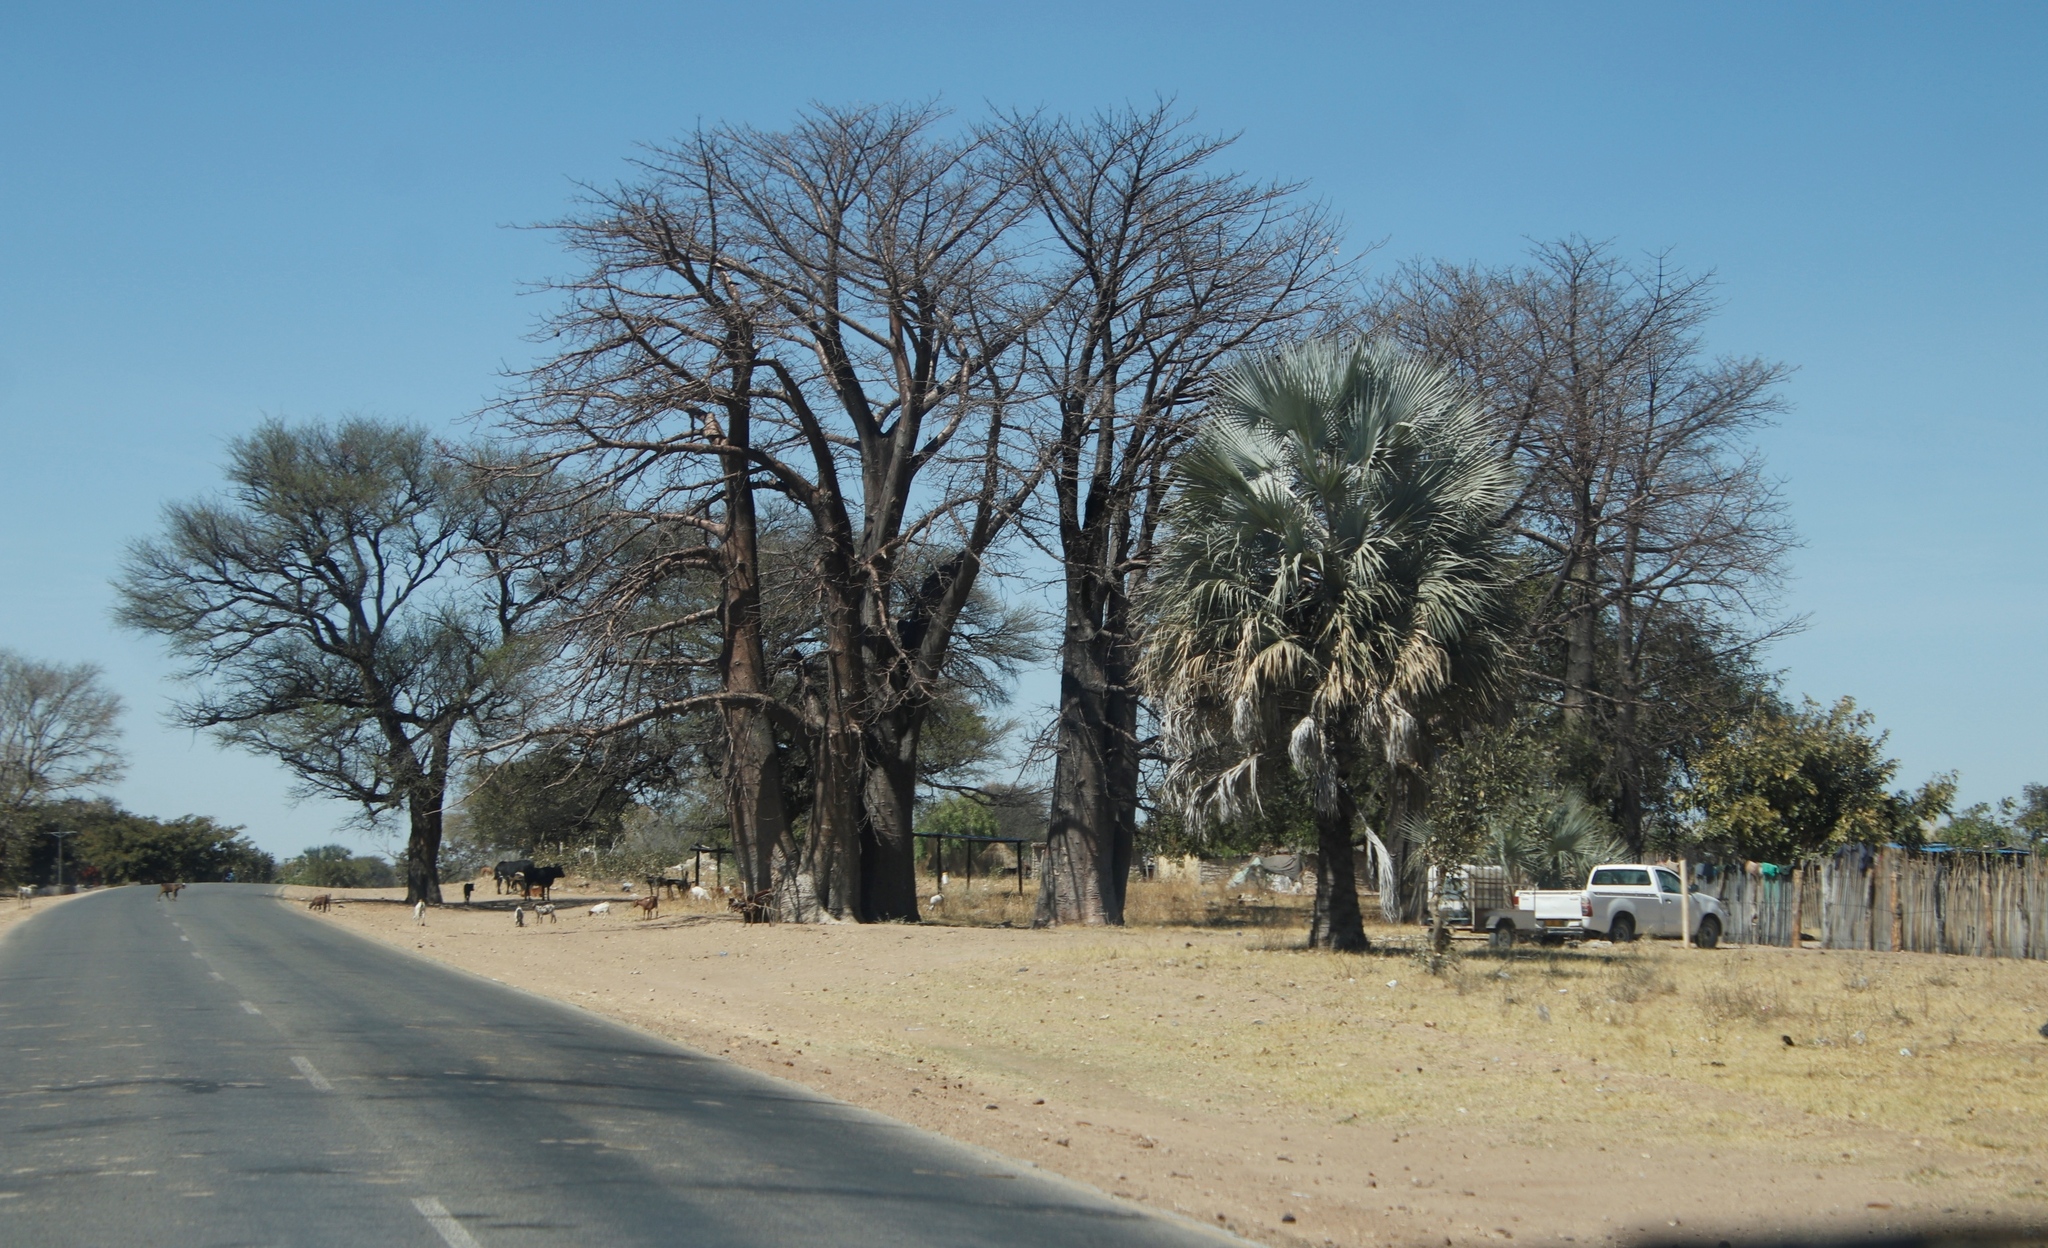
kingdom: Plantae
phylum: Tracheophyta
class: Liliopsida
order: Arecales
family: Arecaceae
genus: Hyphaene
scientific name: Hyphaene petersiana
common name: African ivory nut palm
